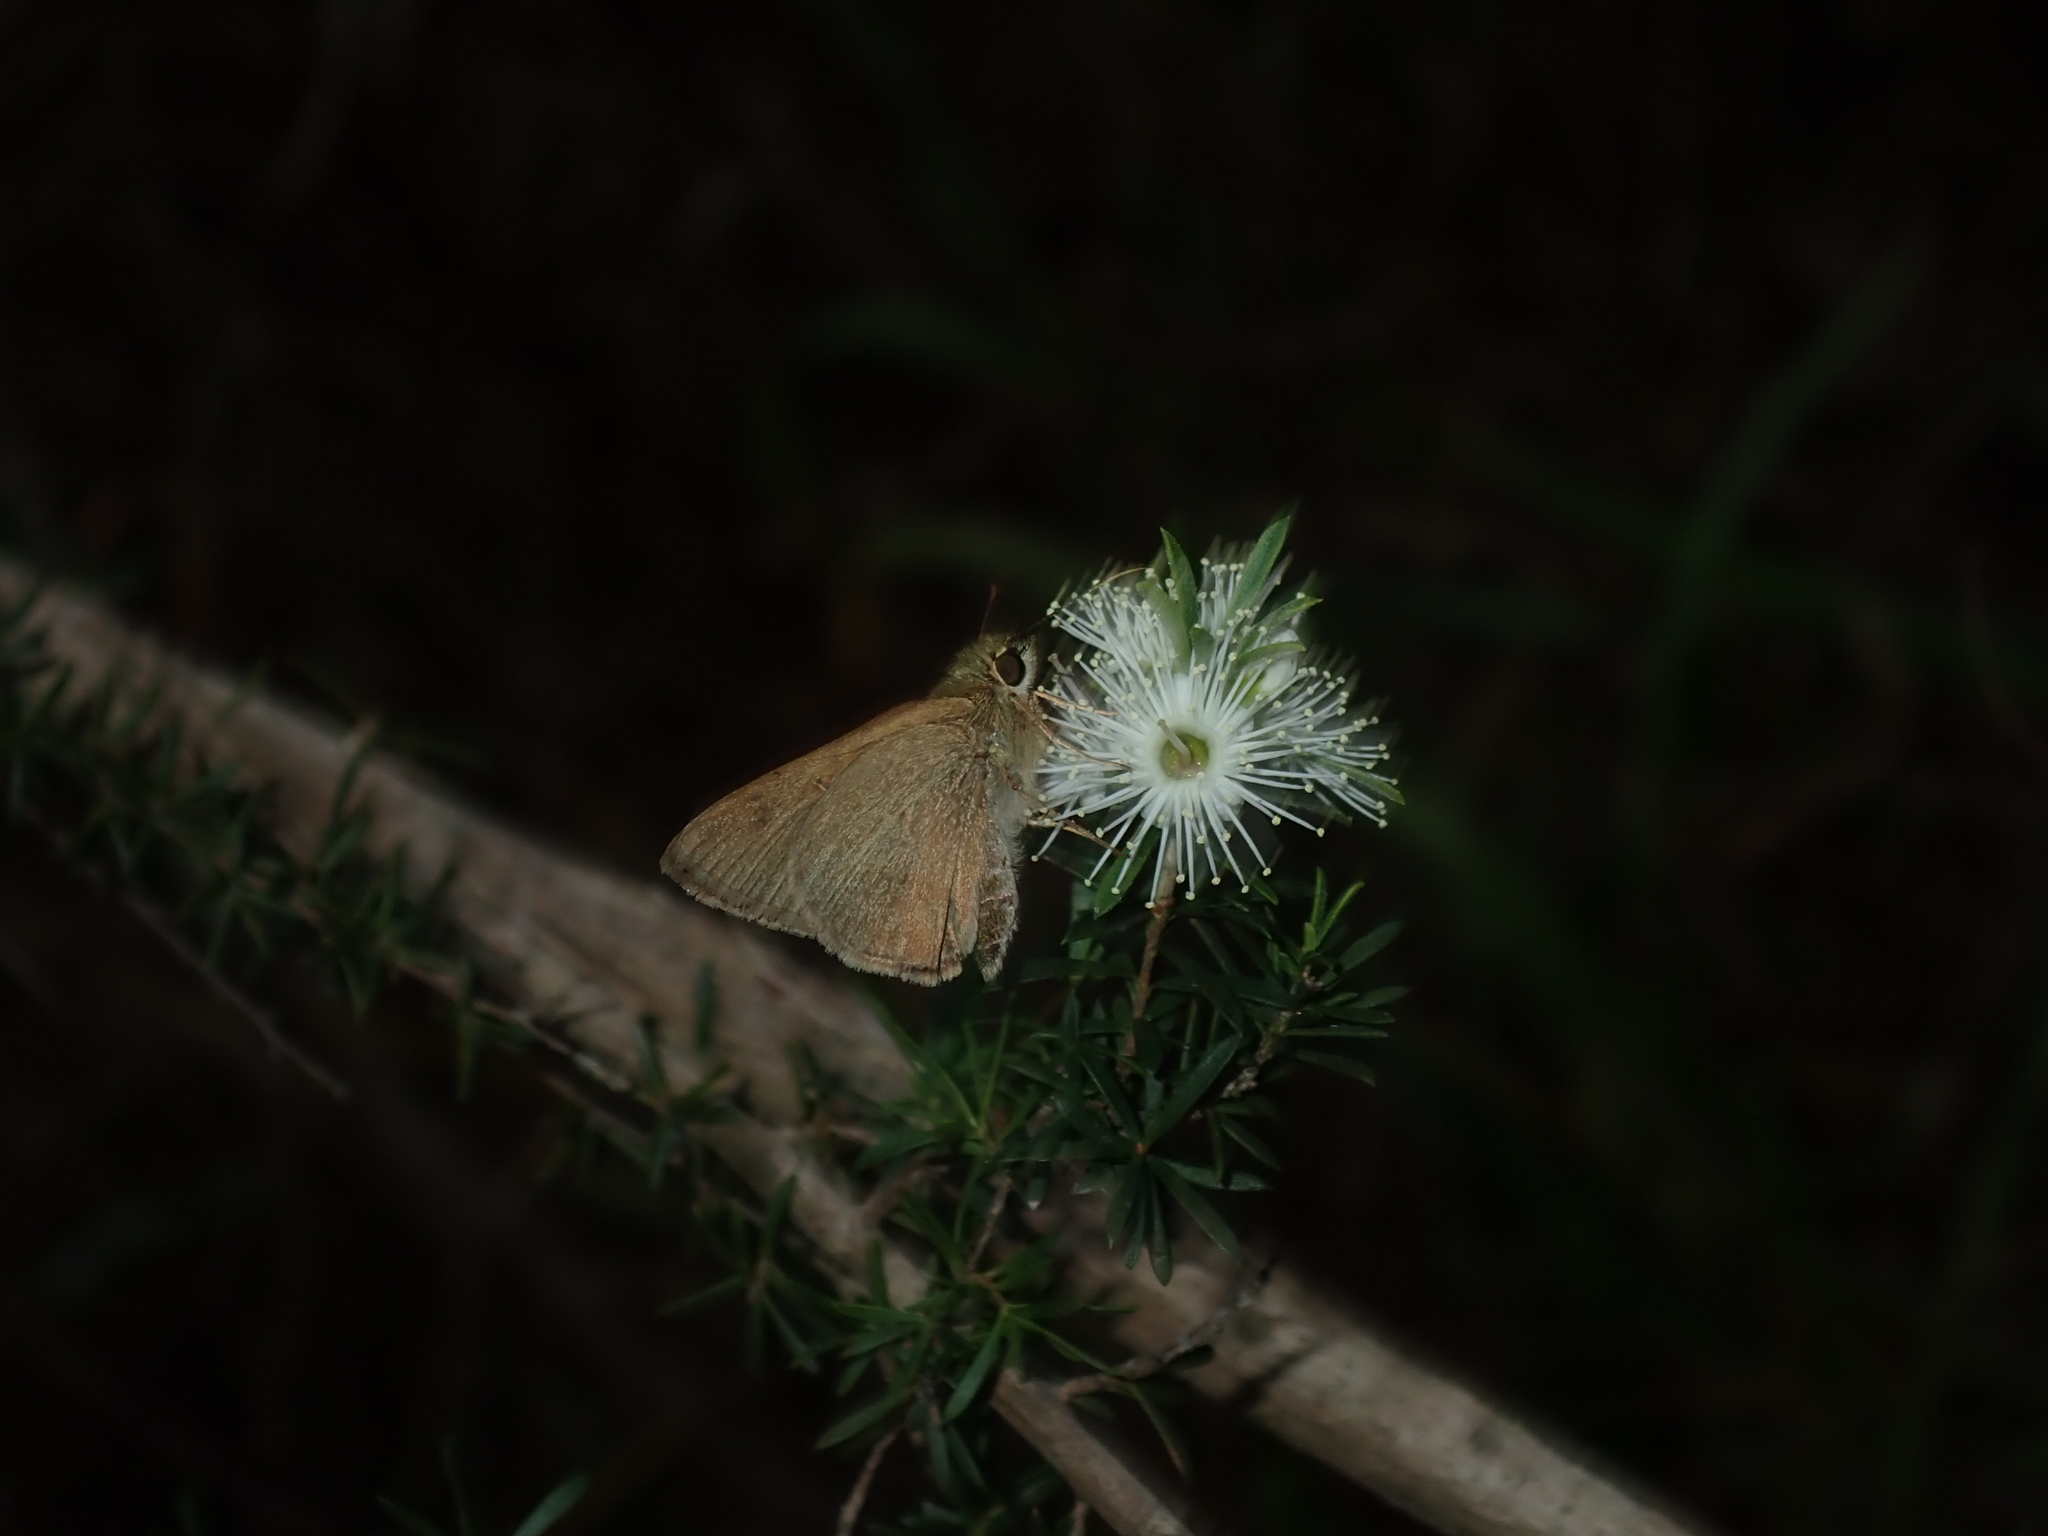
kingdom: Animalia
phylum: Arthropoda
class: Insecta
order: Lepidoptera
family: Hesperiidae
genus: Toxidia
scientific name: Toxidia
